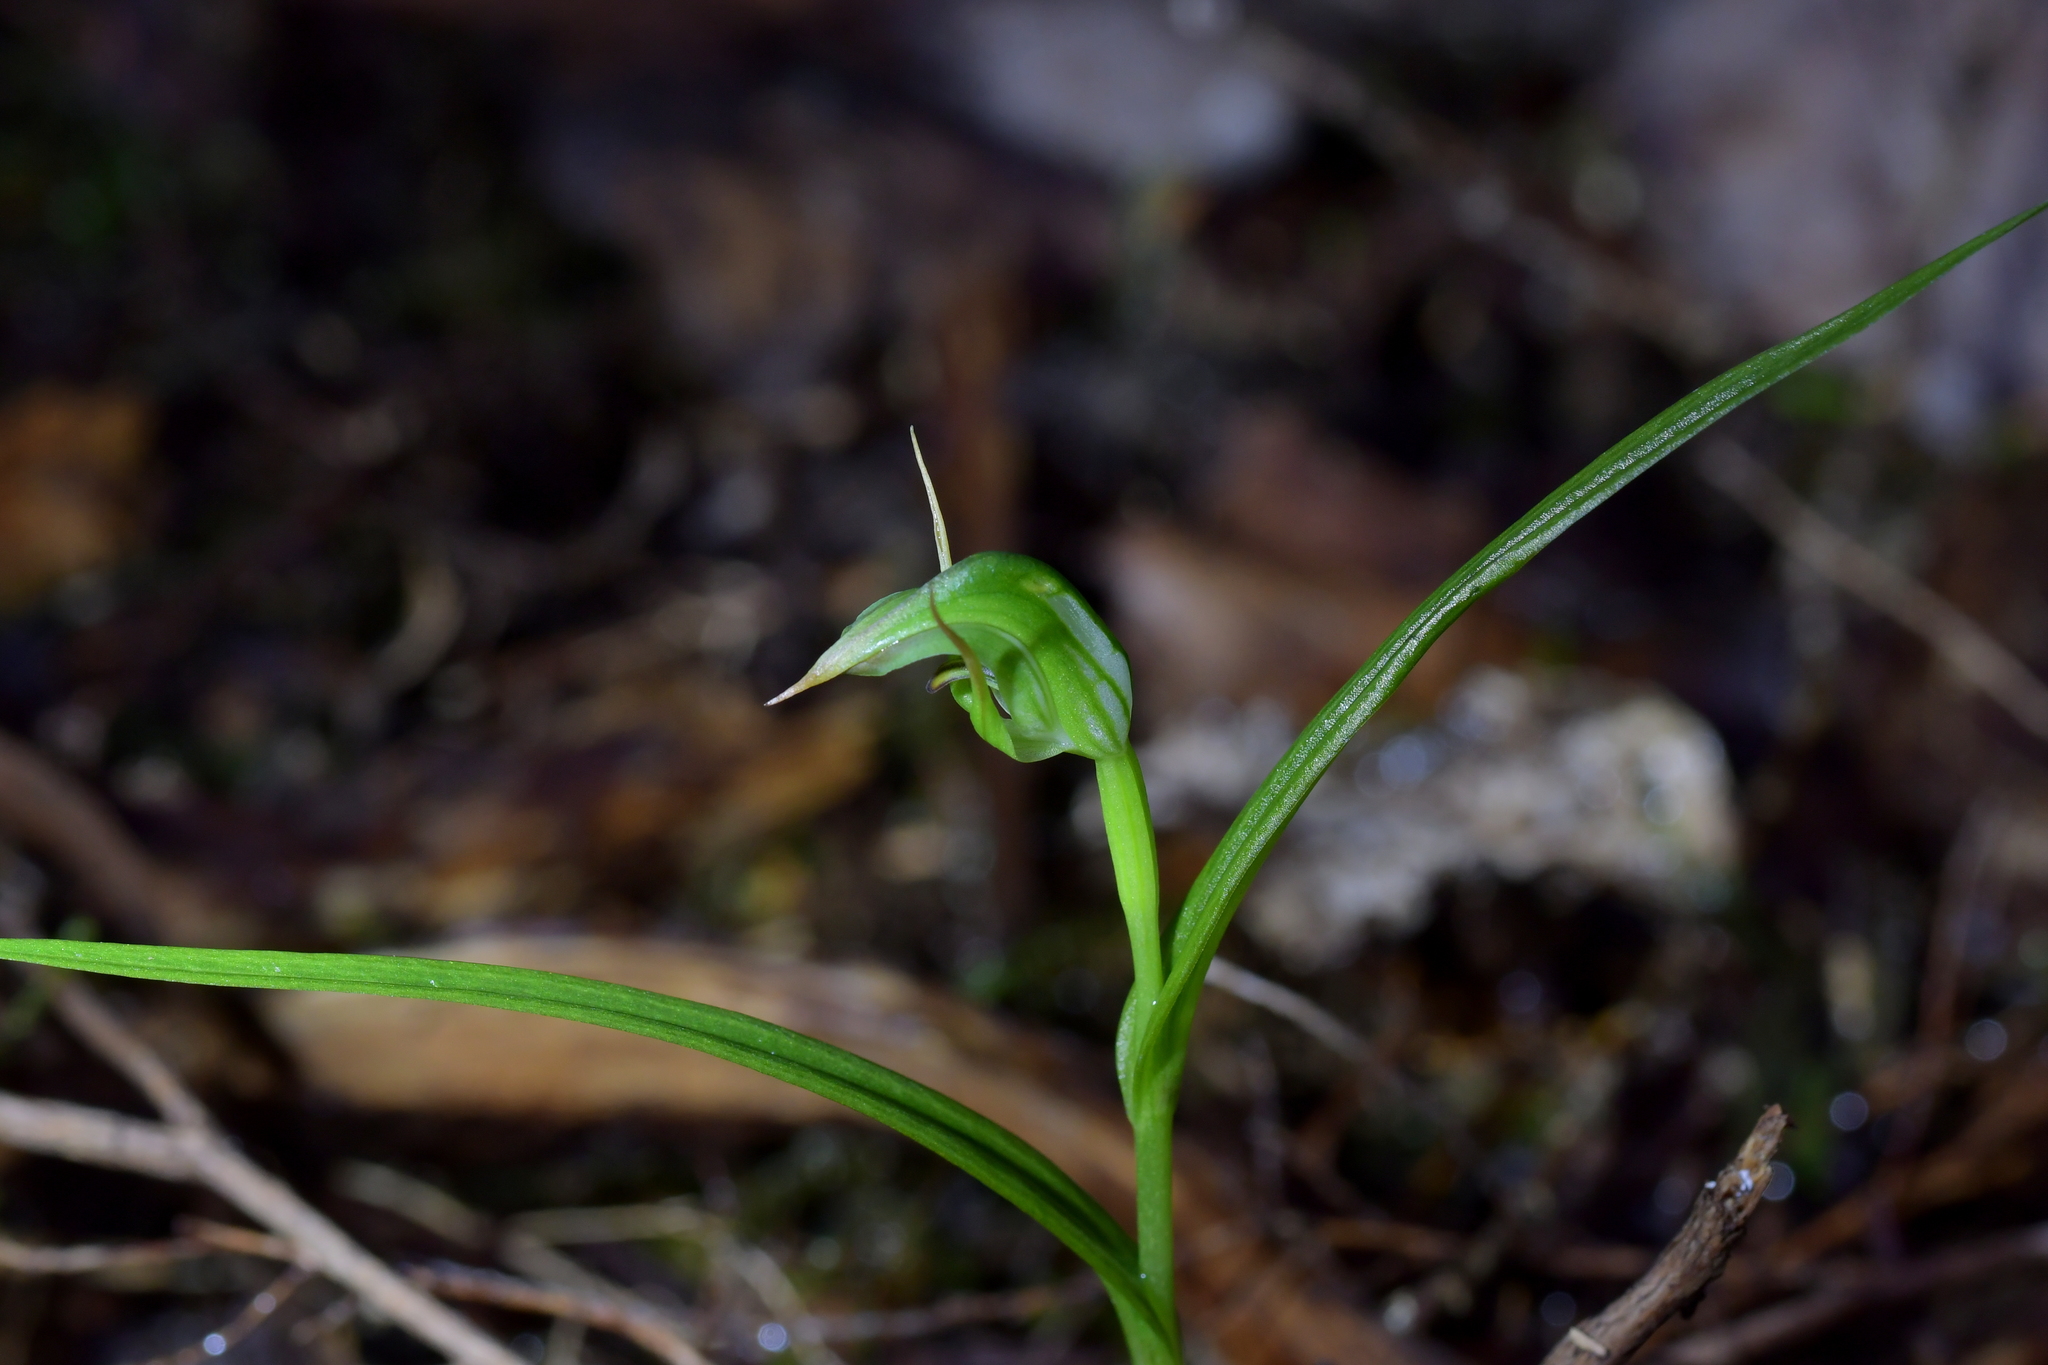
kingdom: Plantae
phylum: Tracheophyta
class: Liliopsida
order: Asparagales
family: Orchidaceae
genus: Pterostylis
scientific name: Pterostylis graminea
